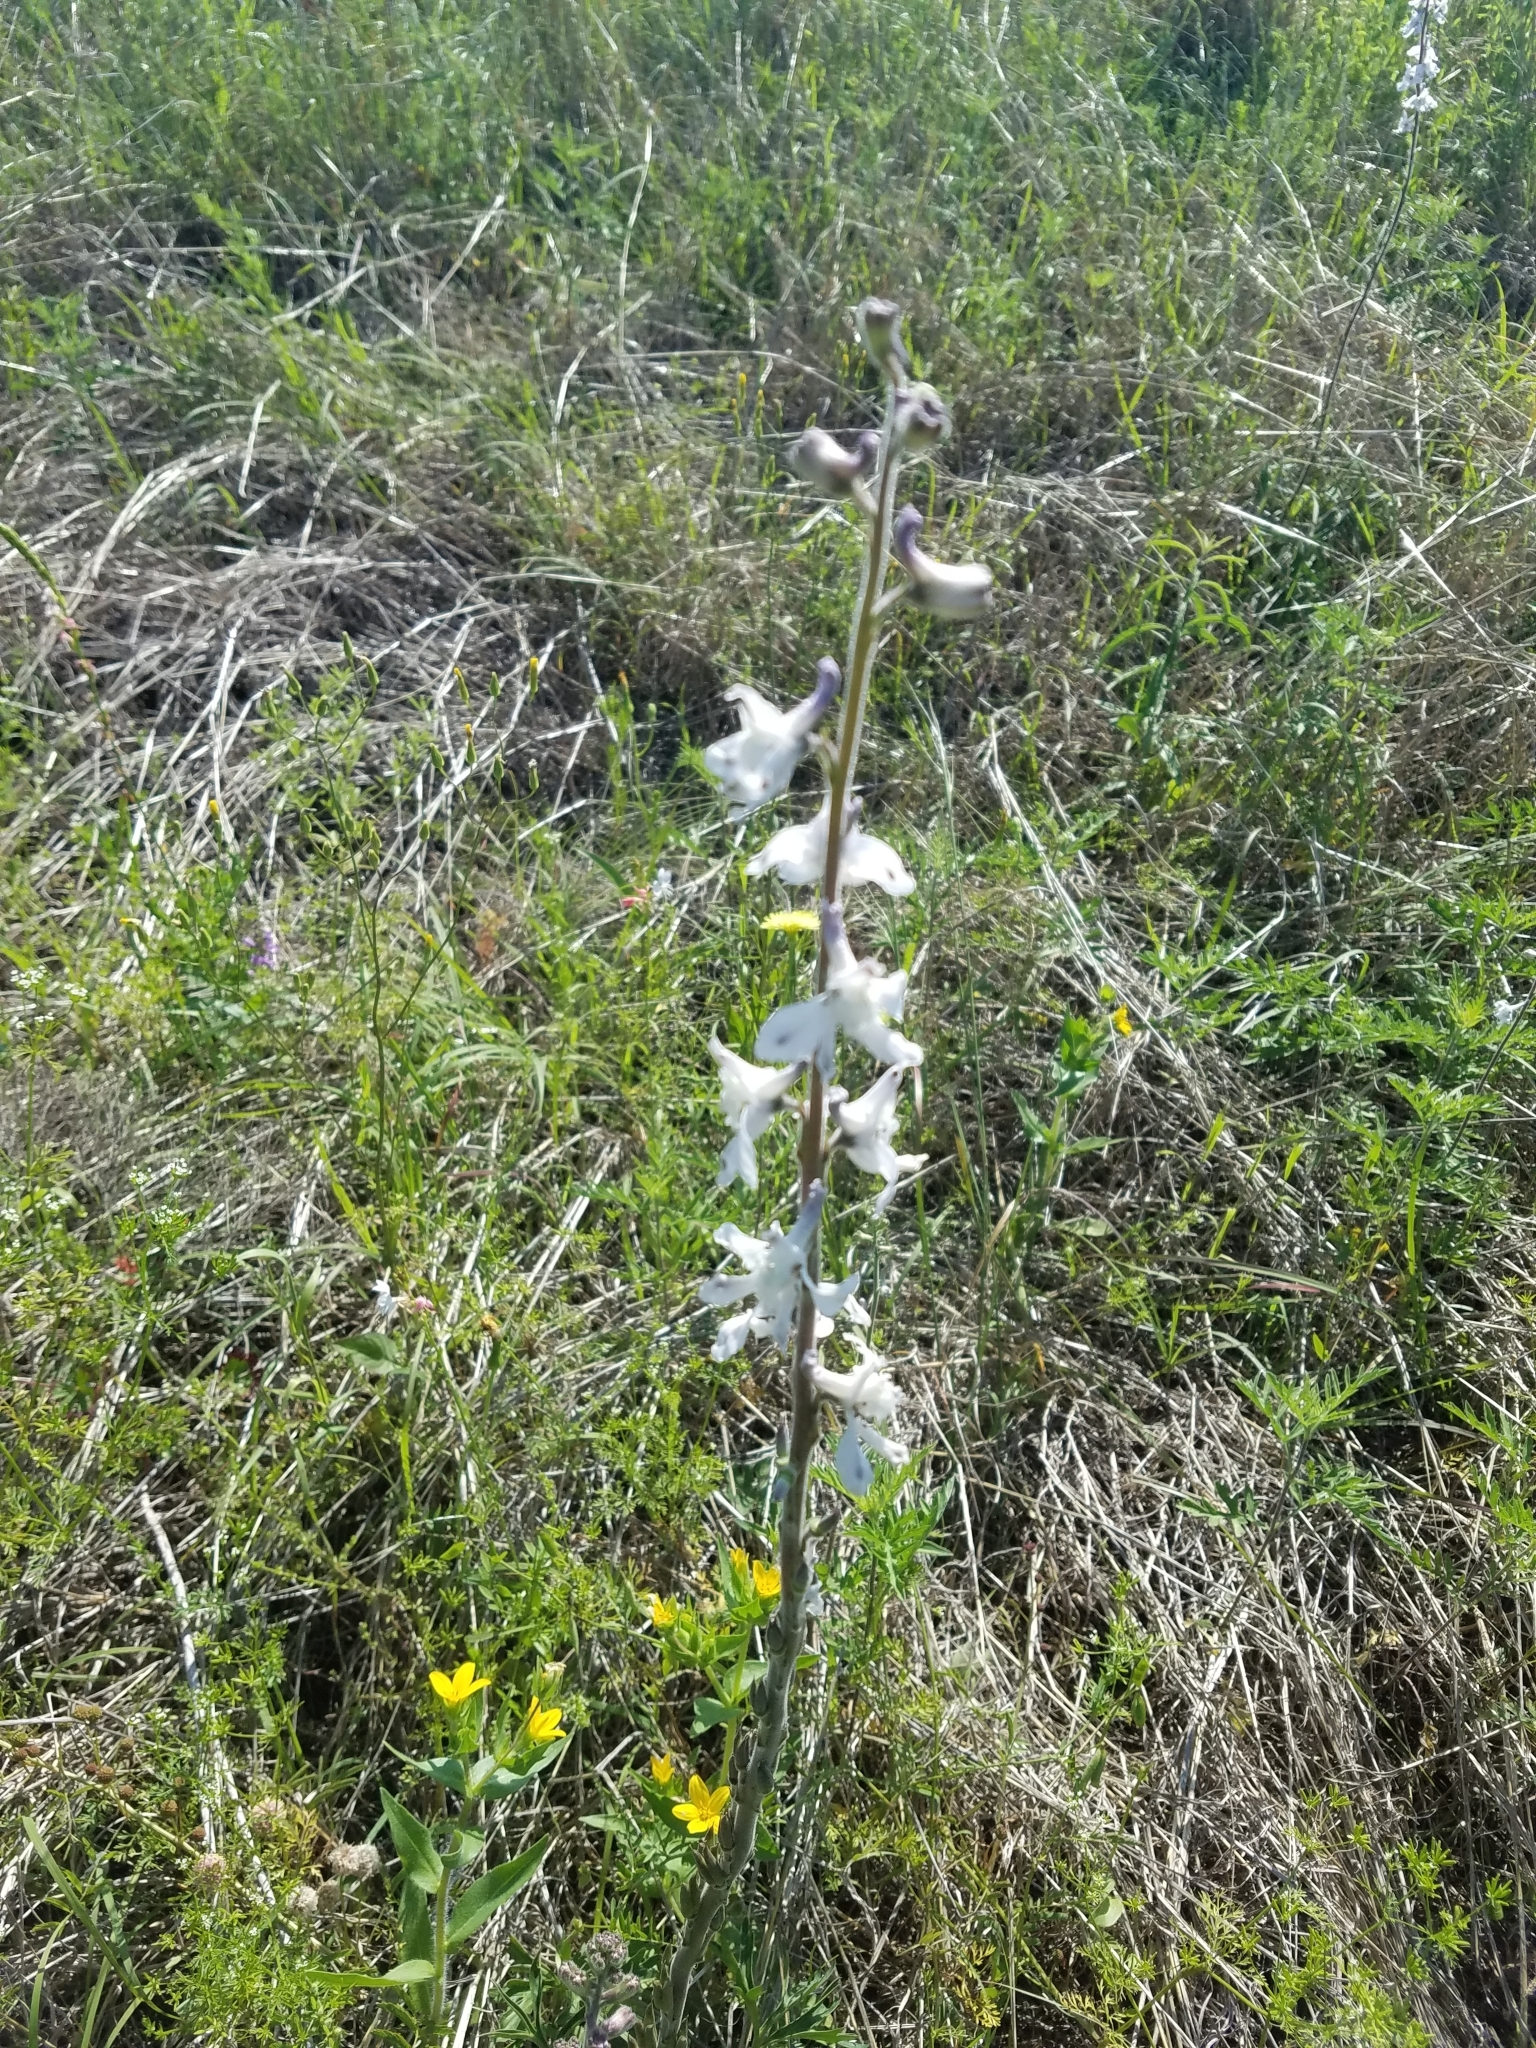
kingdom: Plantae
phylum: Tracheophyta
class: Magnoliopsida
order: Ranunculales
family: Ranunculaceae
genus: Delphinium
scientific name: Delphinium carolinianum
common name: Carolina larkspur
